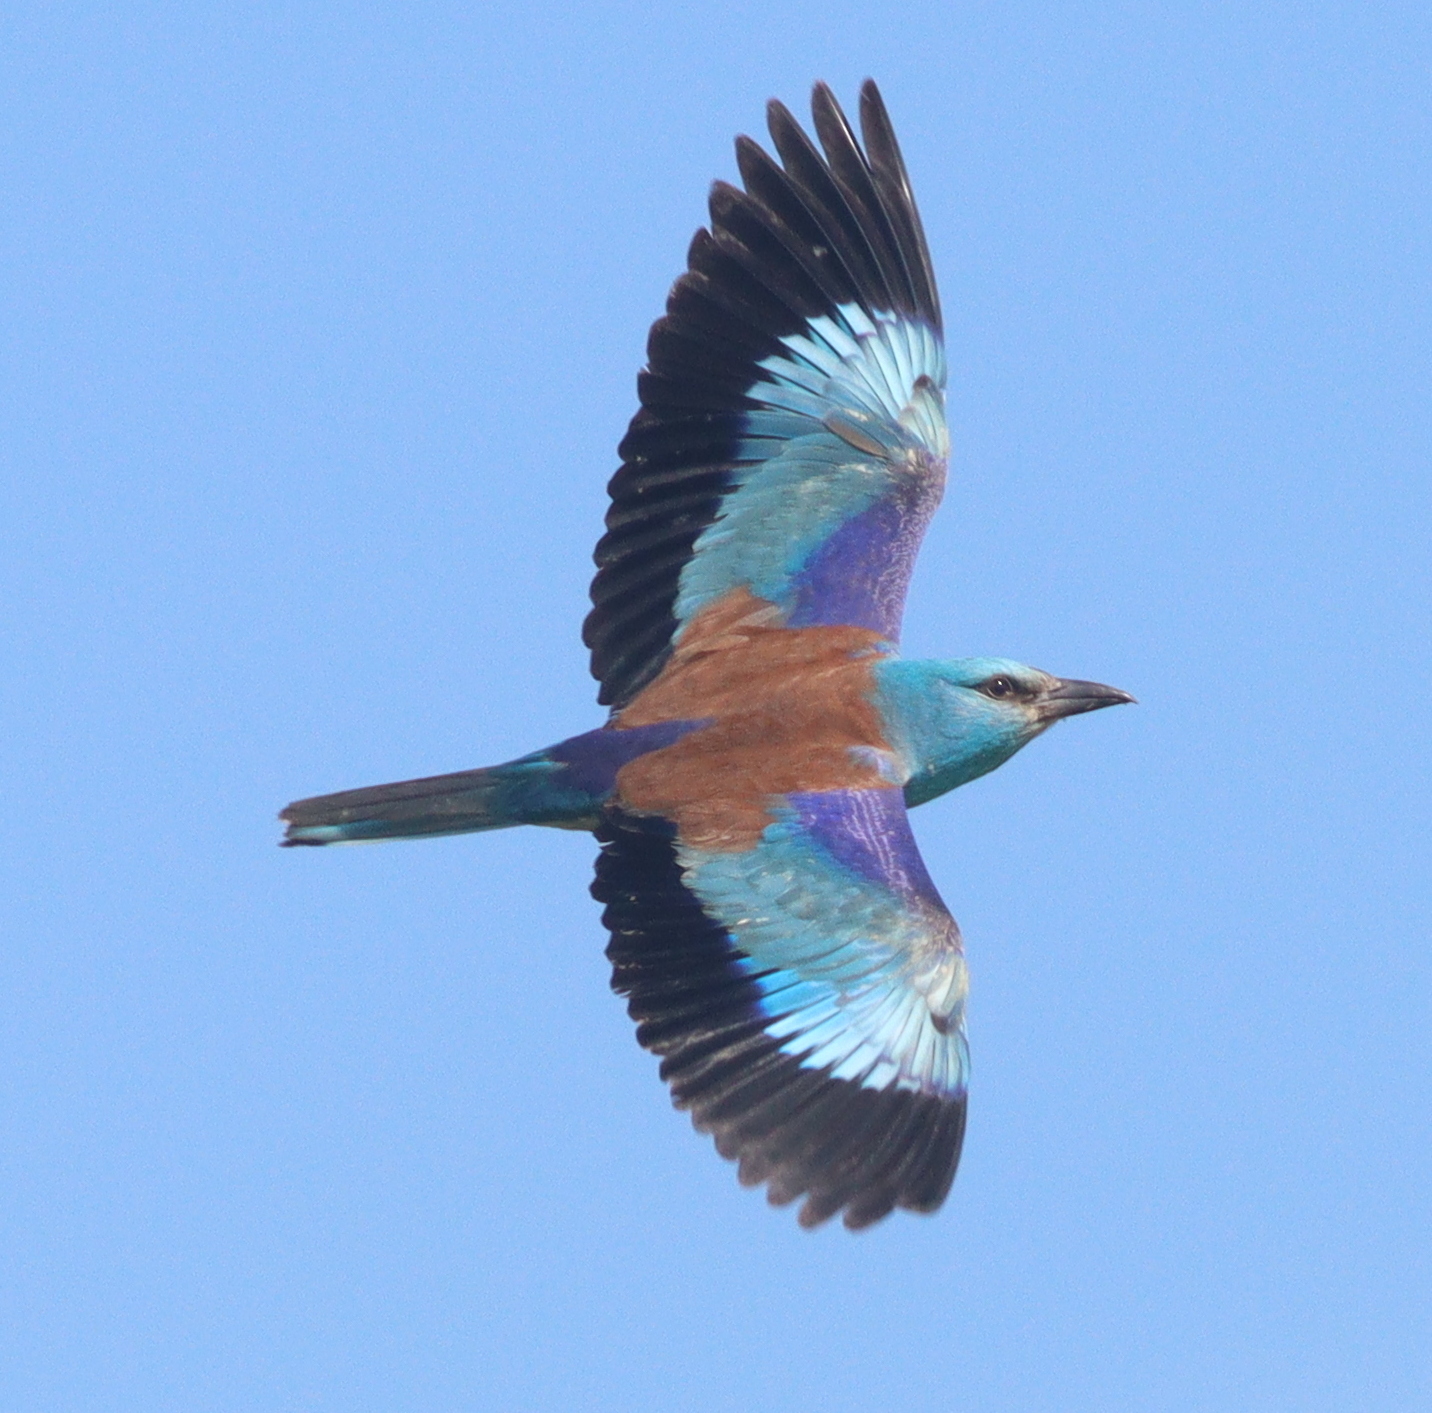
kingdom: Animalia
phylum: Chordata
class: Aves
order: Coraciiformes
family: Coraciidae
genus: Coracias
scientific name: Coracias garrulus
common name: European roller
